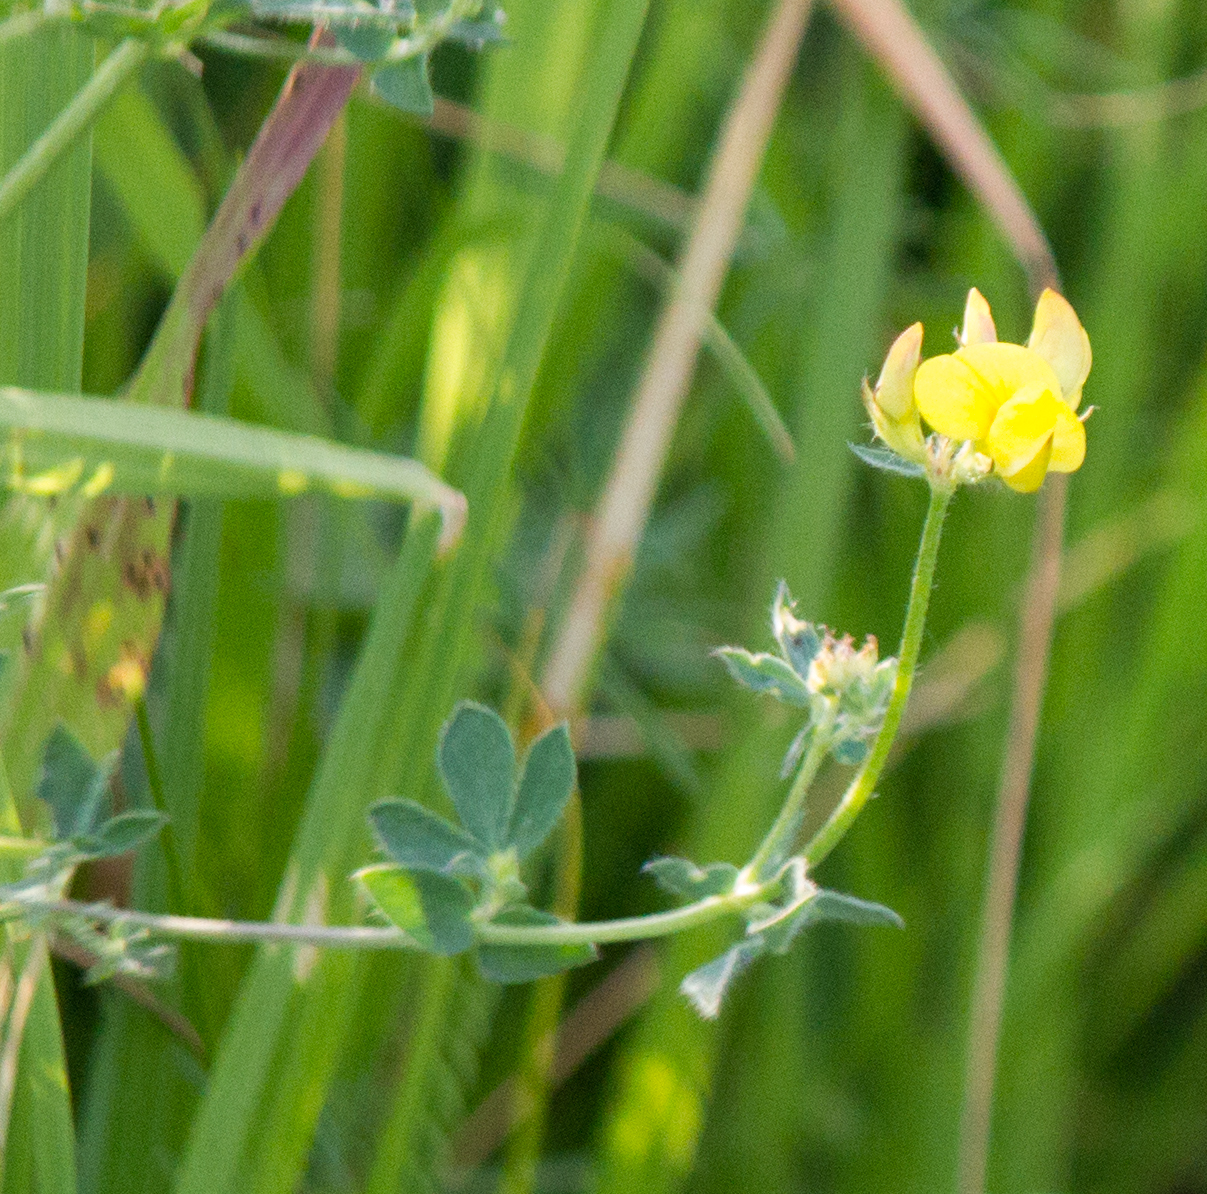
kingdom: Plantae
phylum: Tracheophyta
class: Magnoliopsida
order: Fabales
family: Fabaceae
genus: Lotus
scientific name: Lotus corniculatus
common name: Common bird's-foot-trefoil
